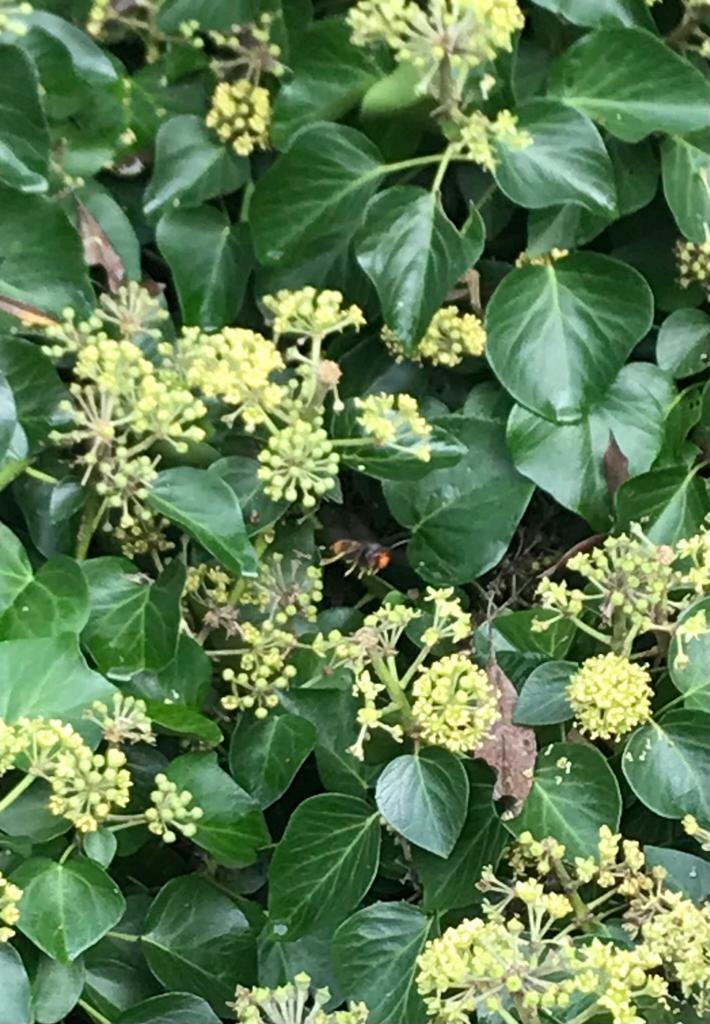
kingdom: Animalia
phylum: Arthropoda
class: Insecta
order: Hymenoptera
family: Vespidae
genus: Vespa
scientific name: Vespa velutina
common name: Asian hornet
